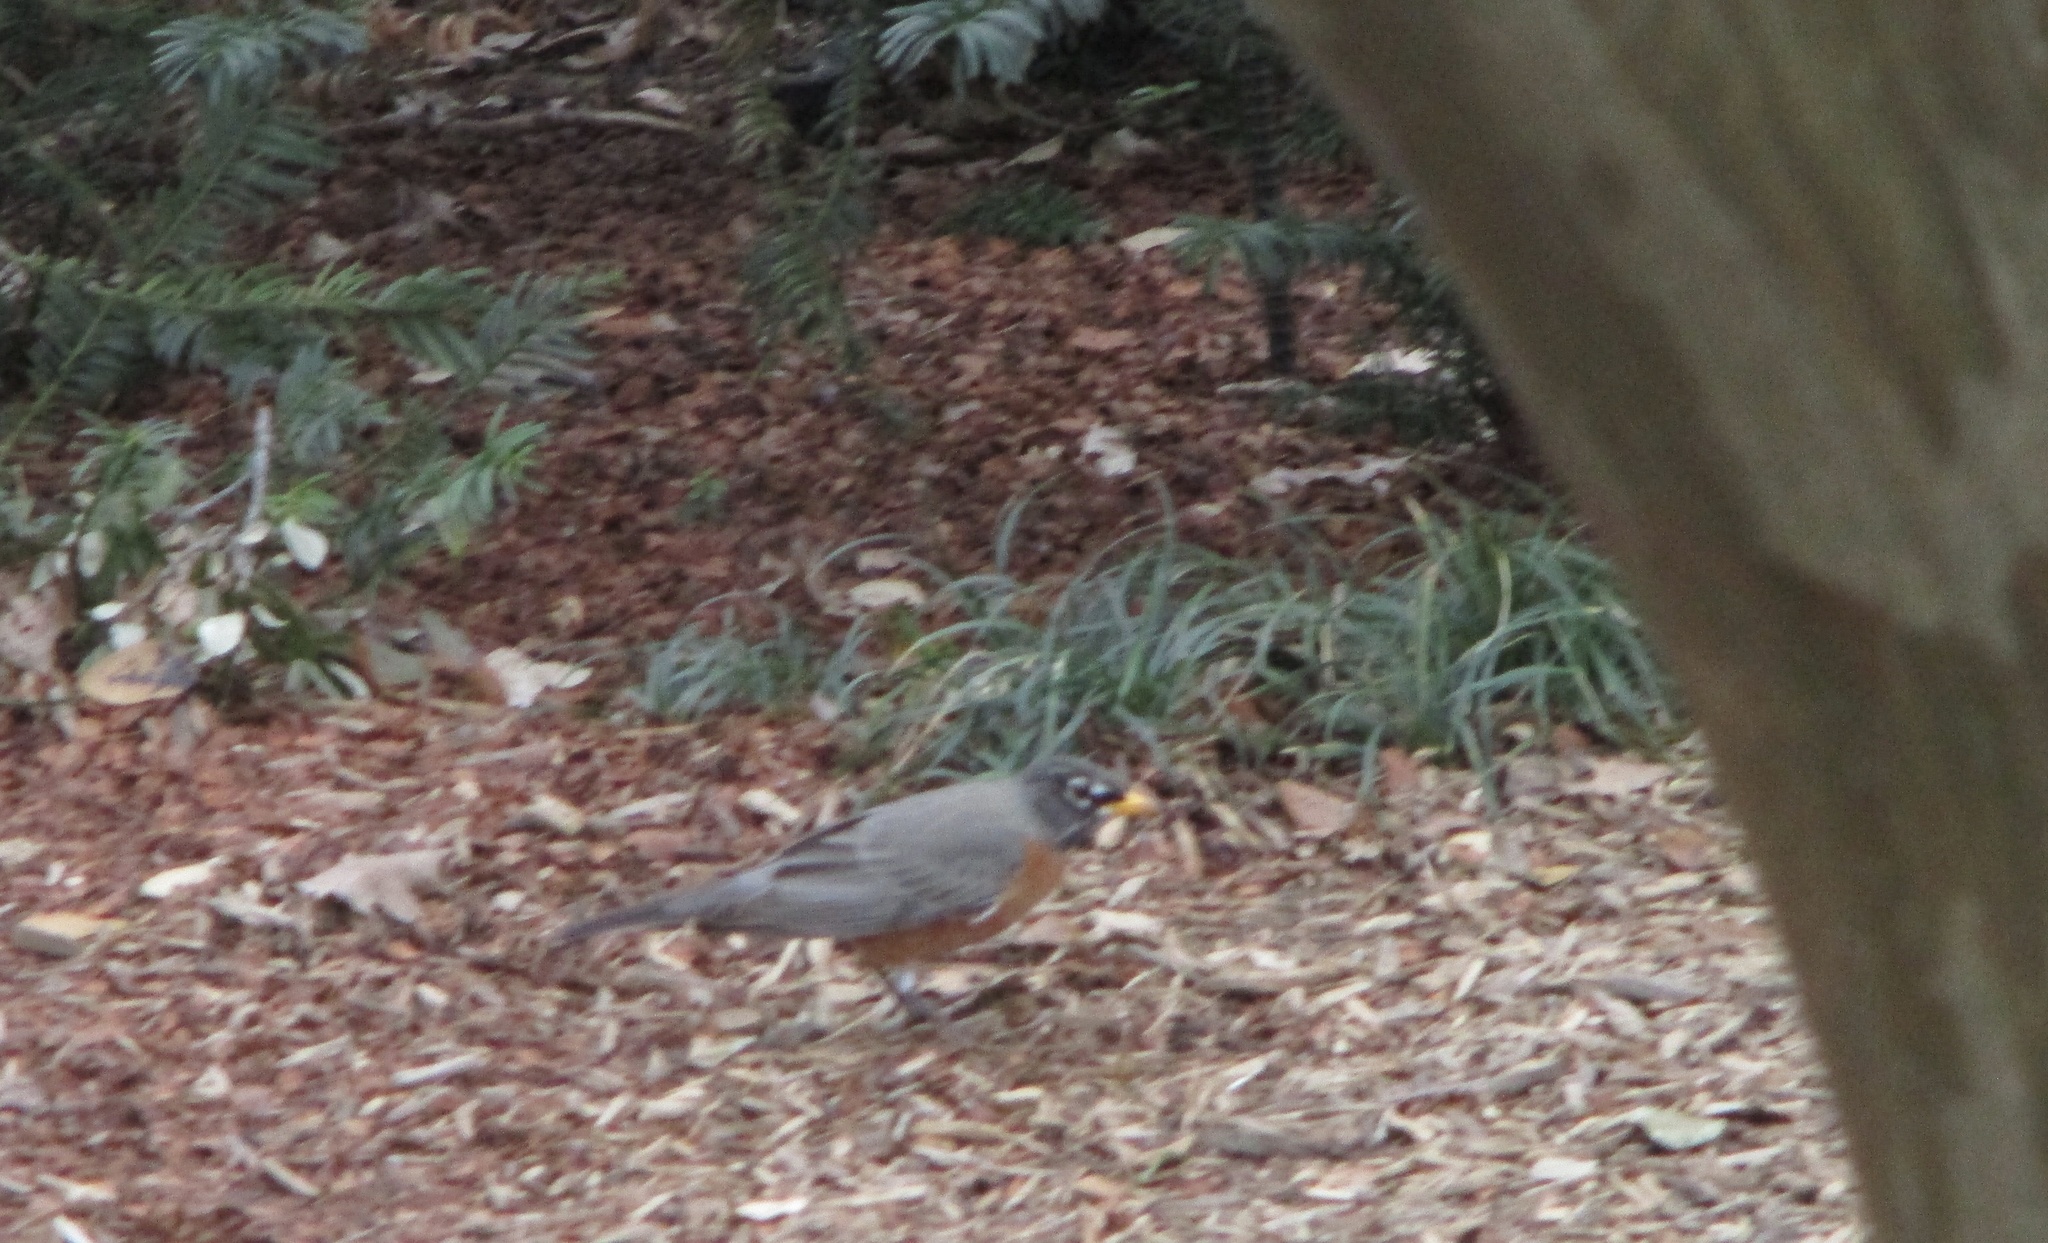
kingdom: Animalia
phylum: Chordata
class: Aves
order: Passeriformes
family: Turdidae
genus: Turdus
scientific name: Turdus migratorius
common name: American robin
